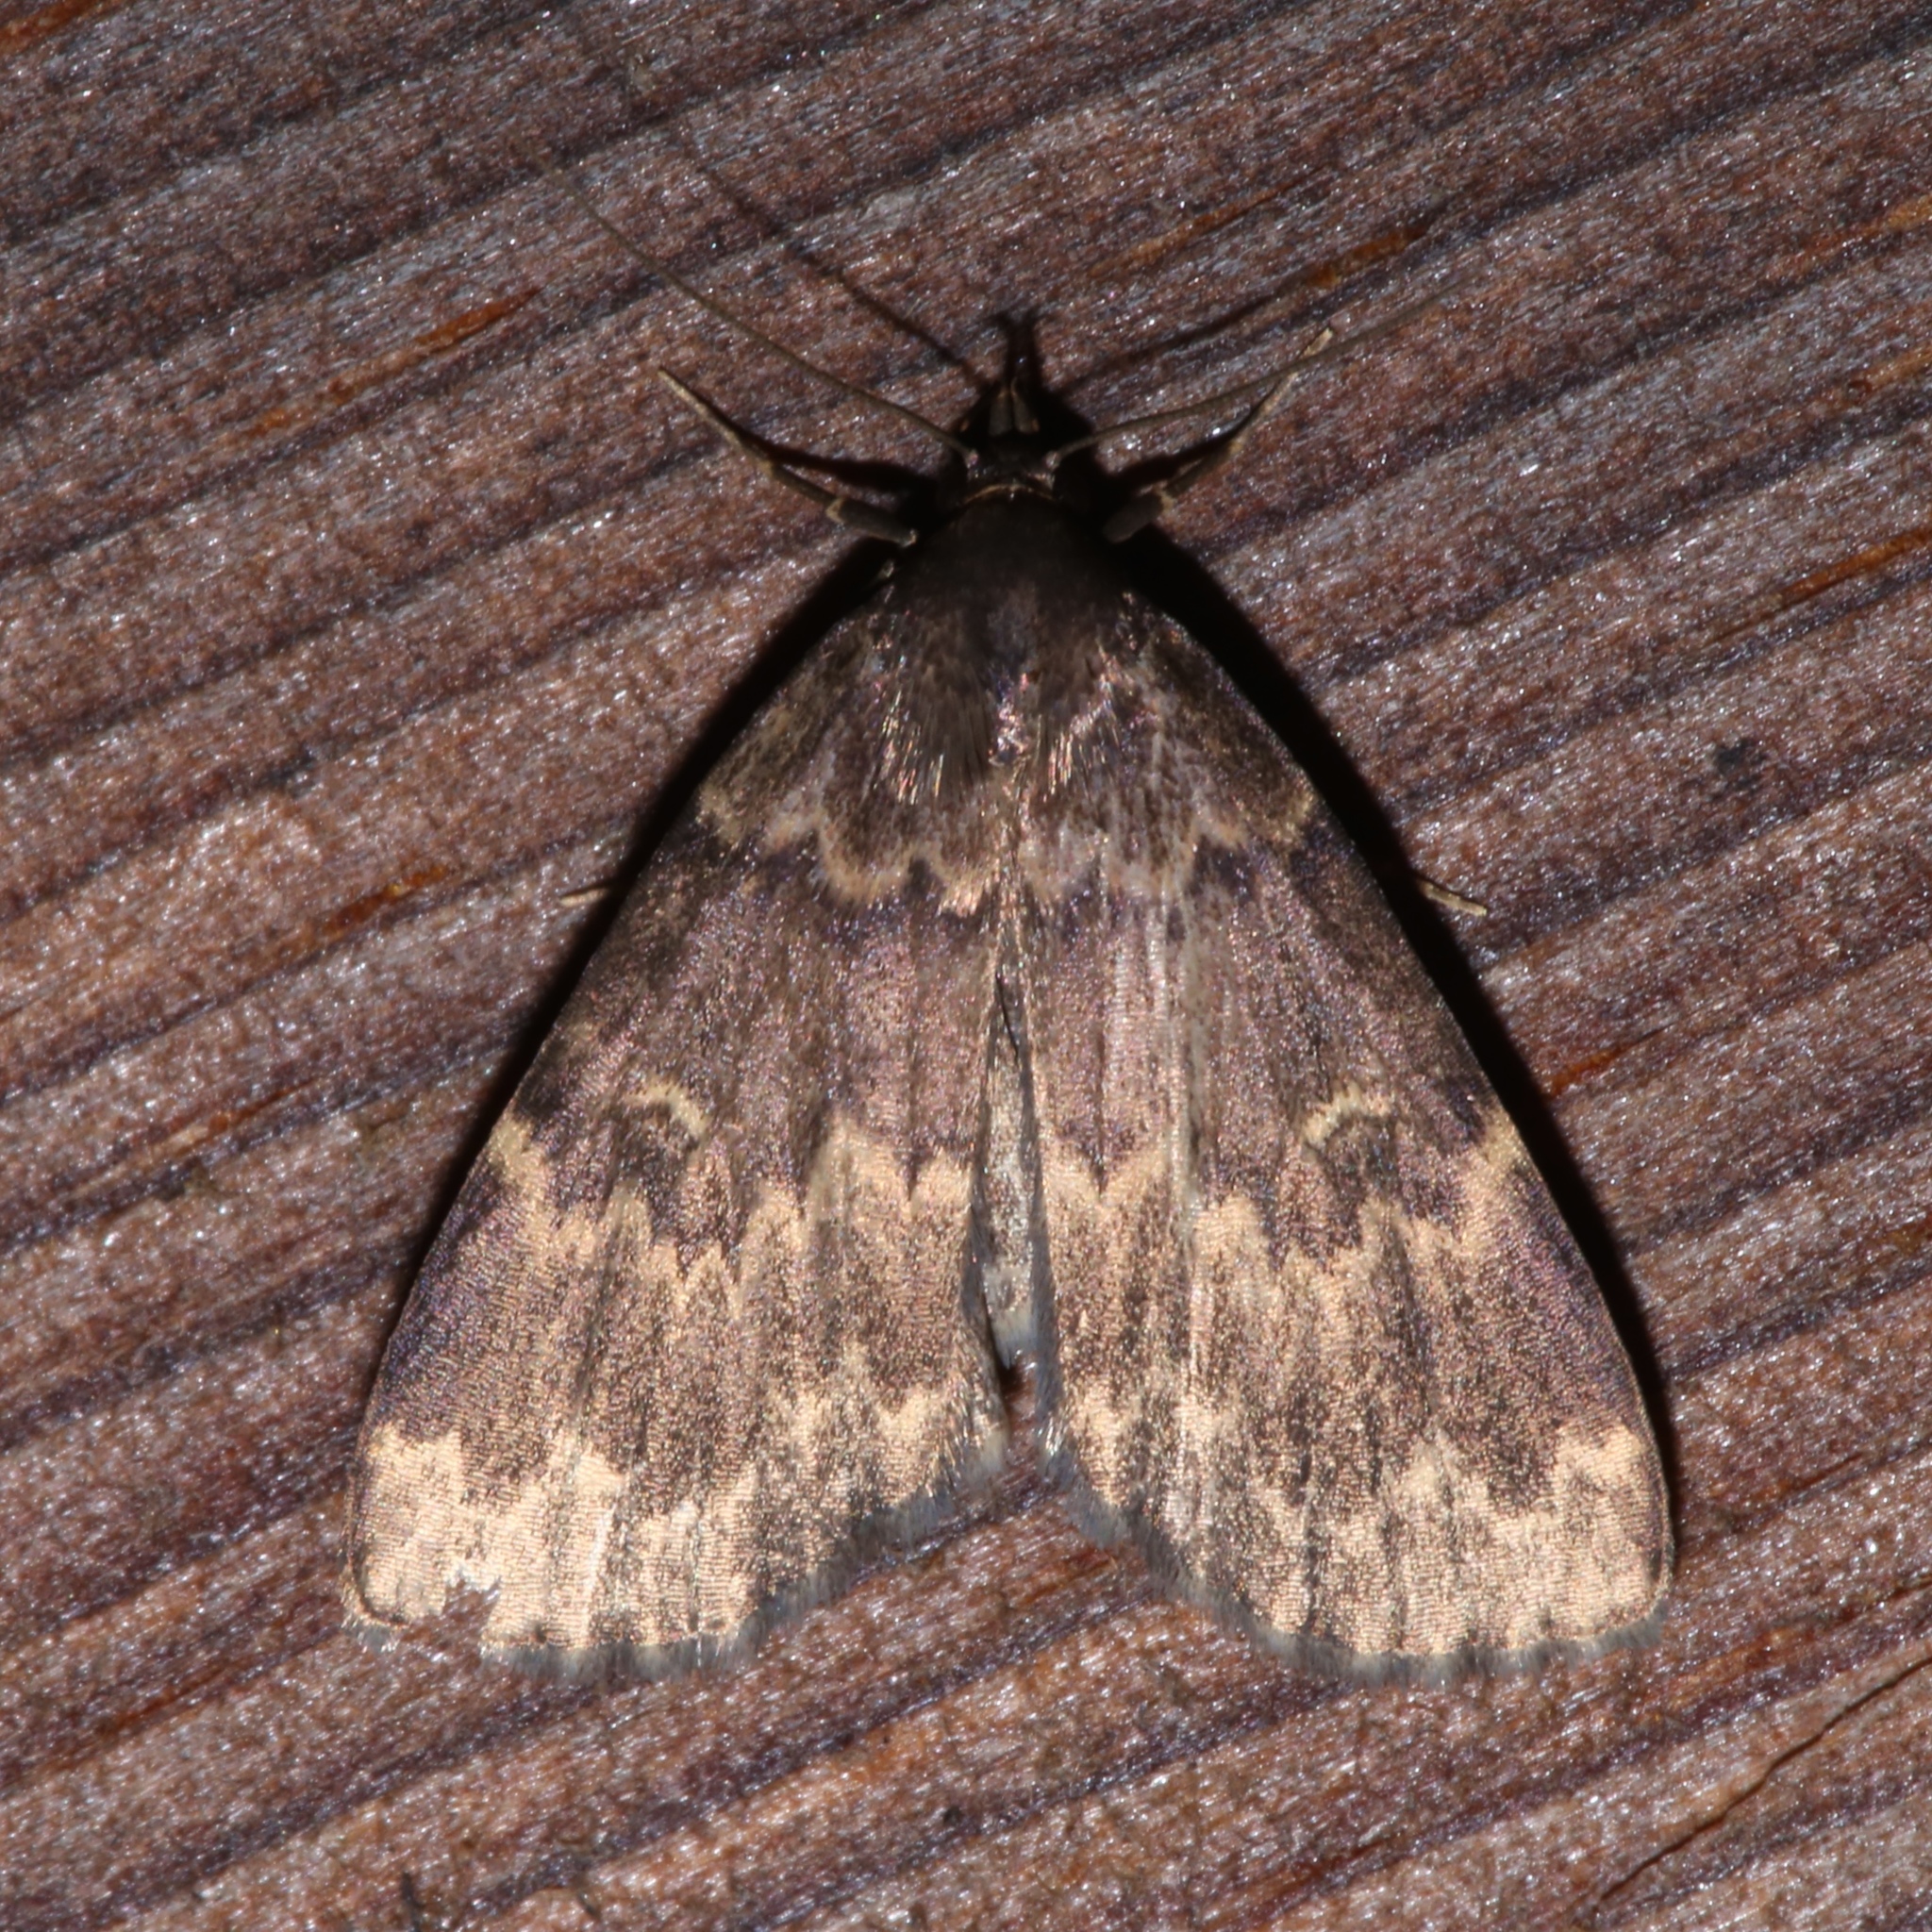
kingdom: Animalia
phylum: Arthropoda
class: Insecta
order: Lepidoptera
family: Erebidae
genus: Idia
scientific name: Idia lubricalis
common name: Twin-striped tabby
